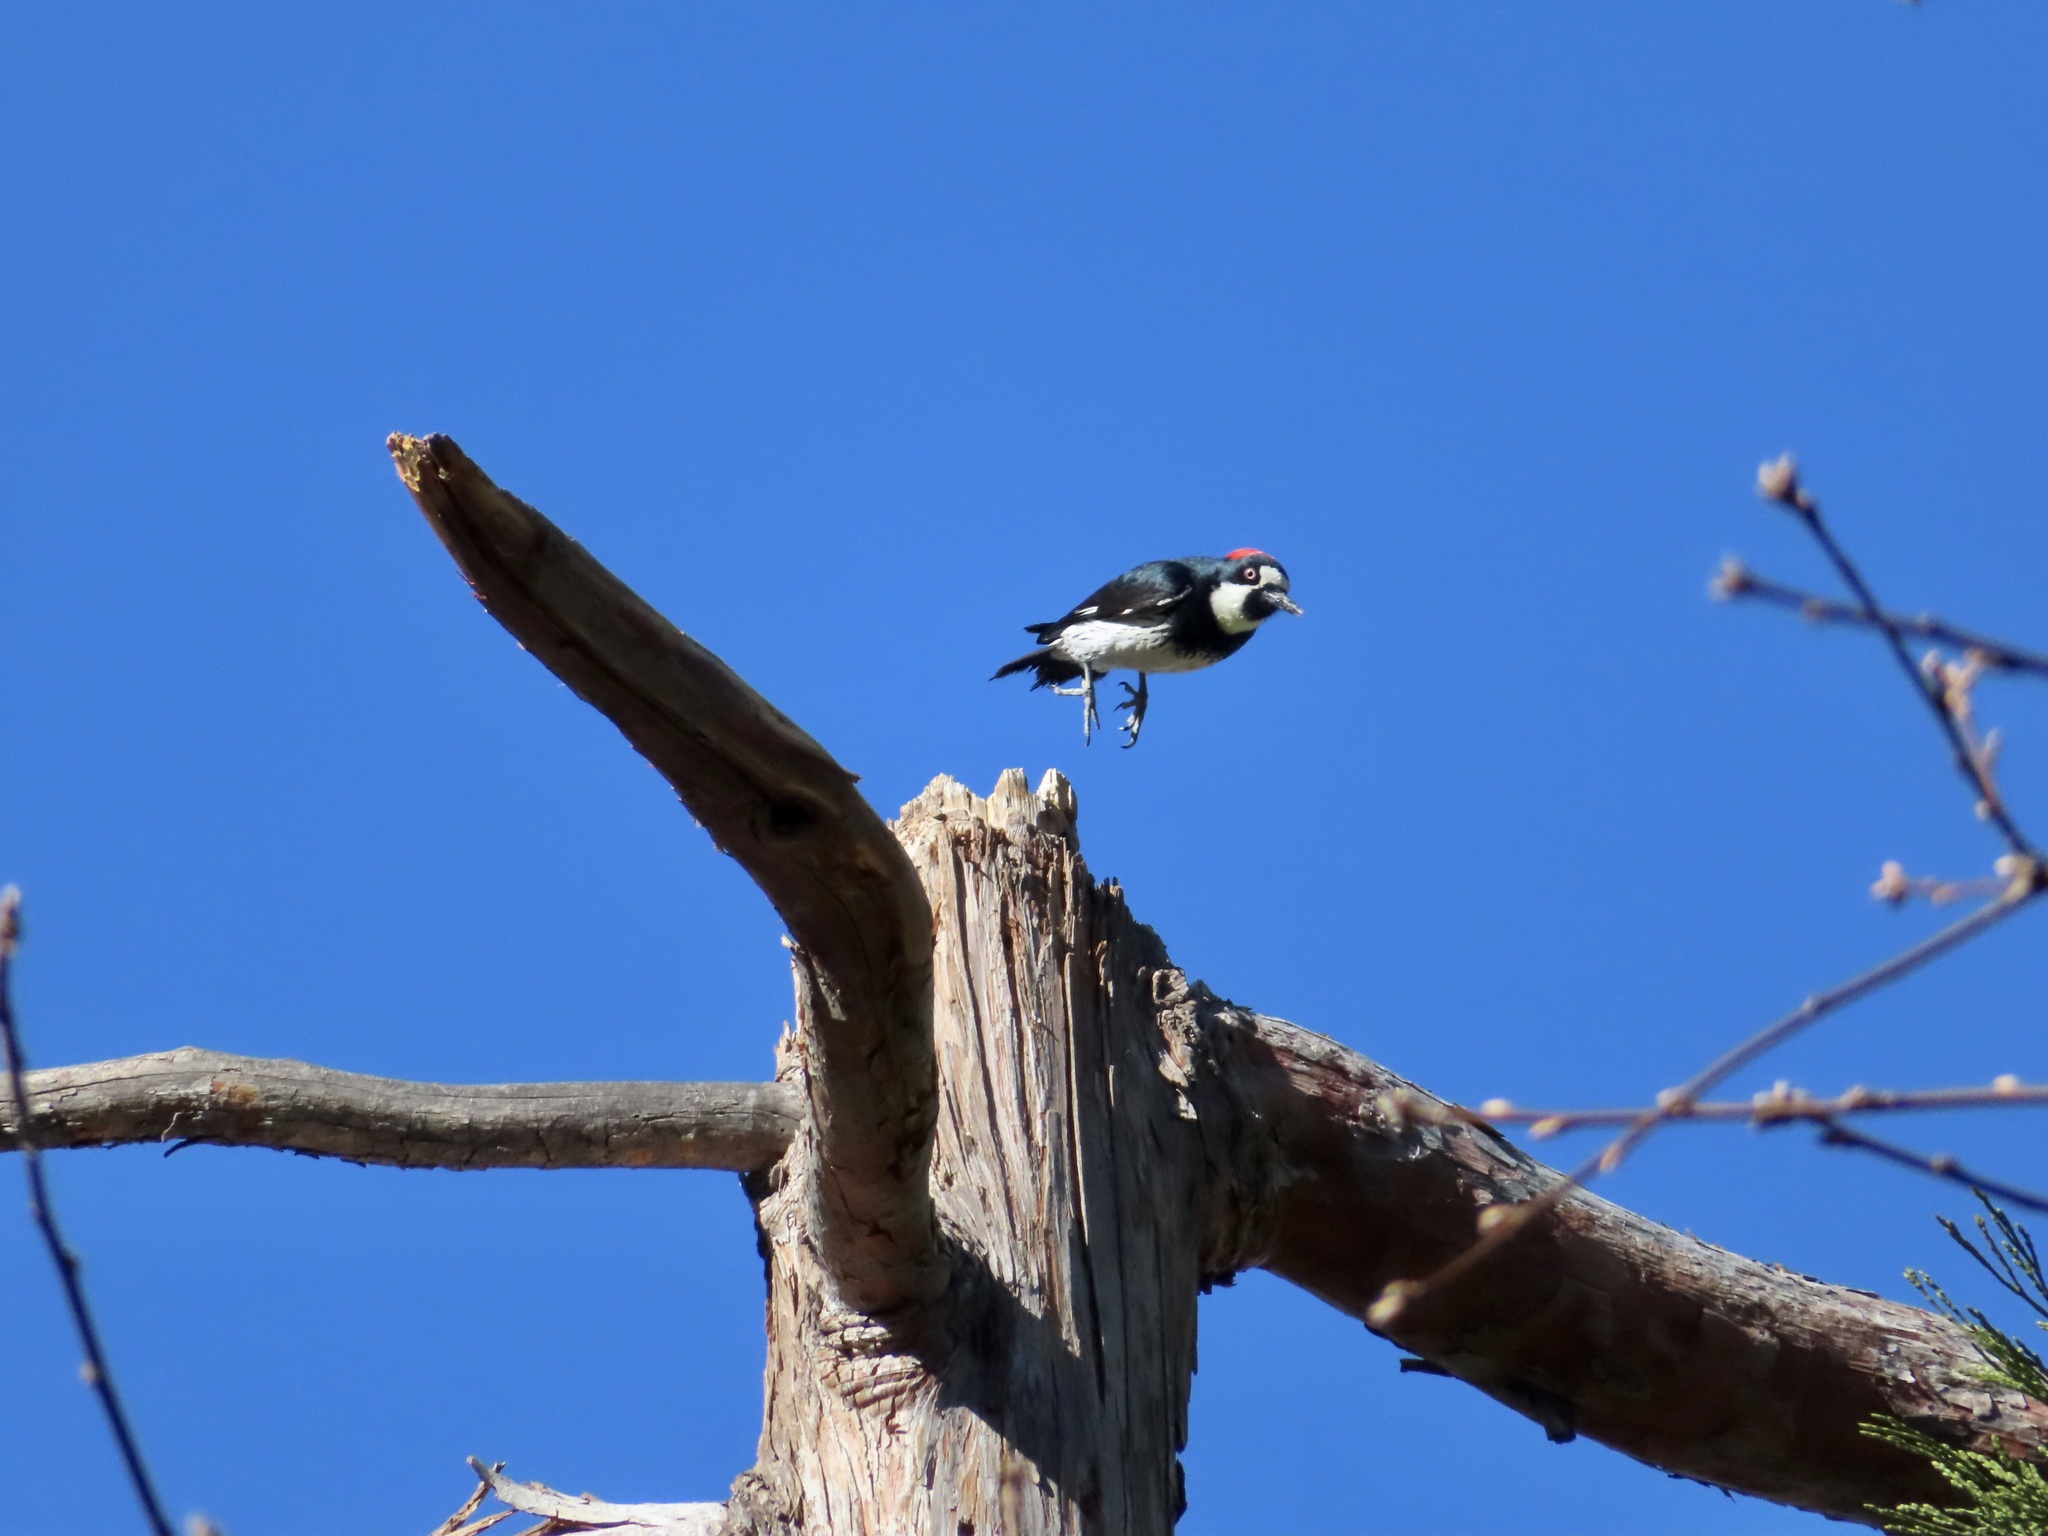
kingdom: Animalia
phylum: Chordata
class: Aves
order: Piciformes
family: Picidae
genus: Melanerpes
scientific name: Melanerpes formicivorus
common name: Acorn woodpecker
